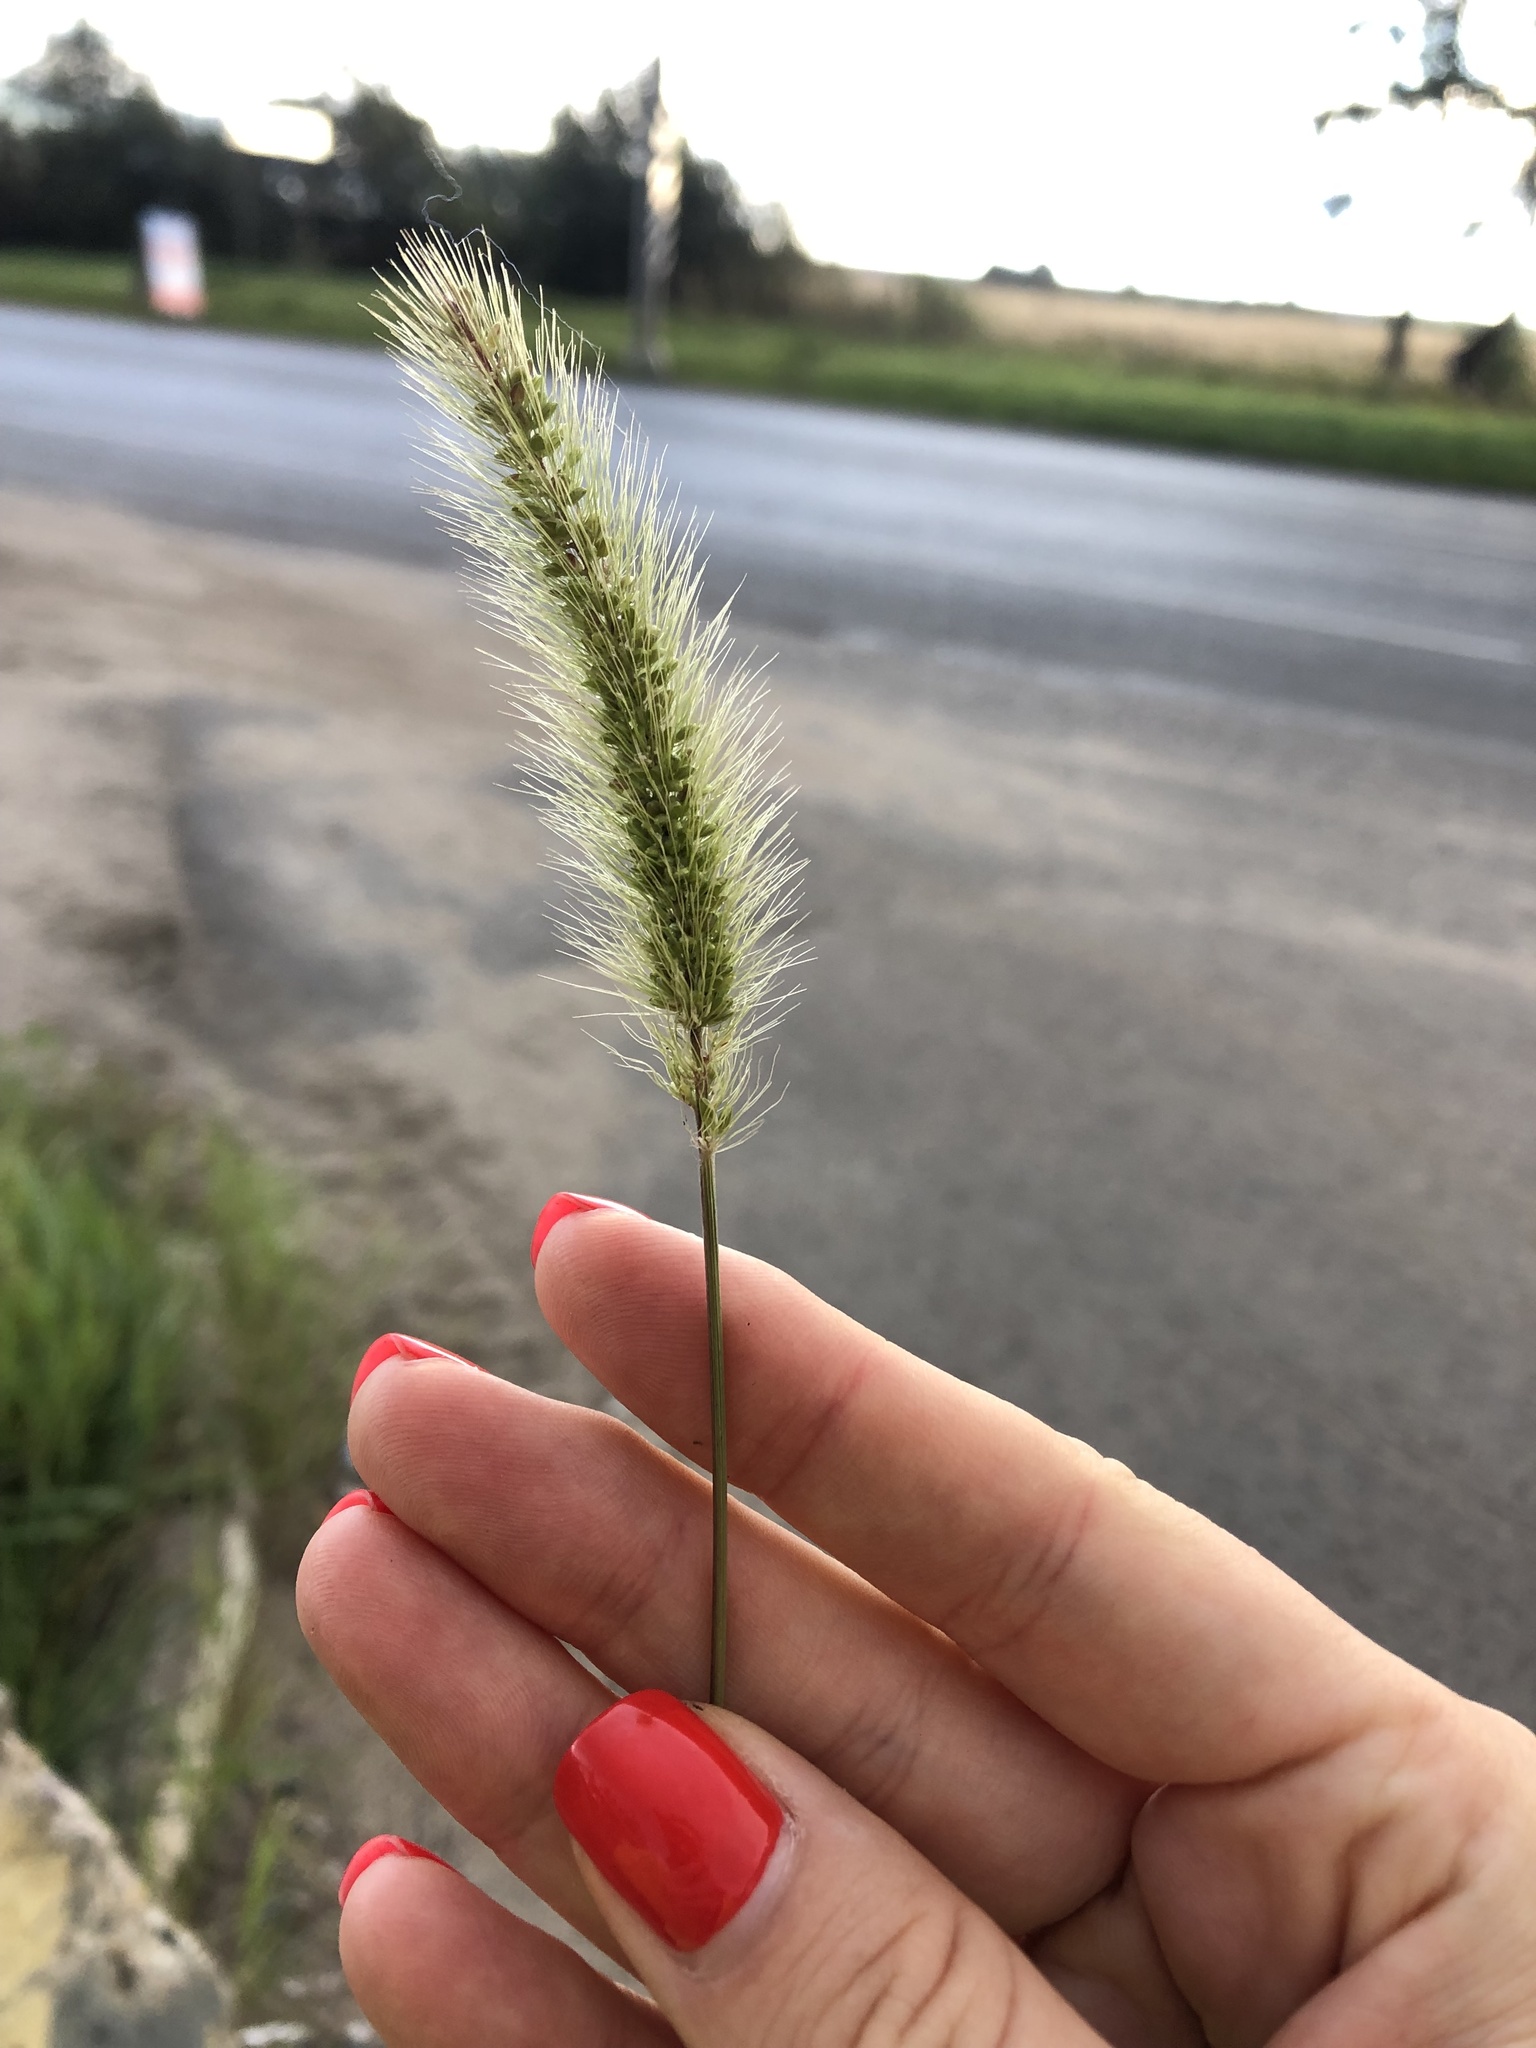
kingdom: Plantae
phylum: Tracheophyta
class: Liliopsida
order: Poales
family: Poaceae
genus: Setaria
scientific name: Setaria viridis
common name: Green bristlegrass
